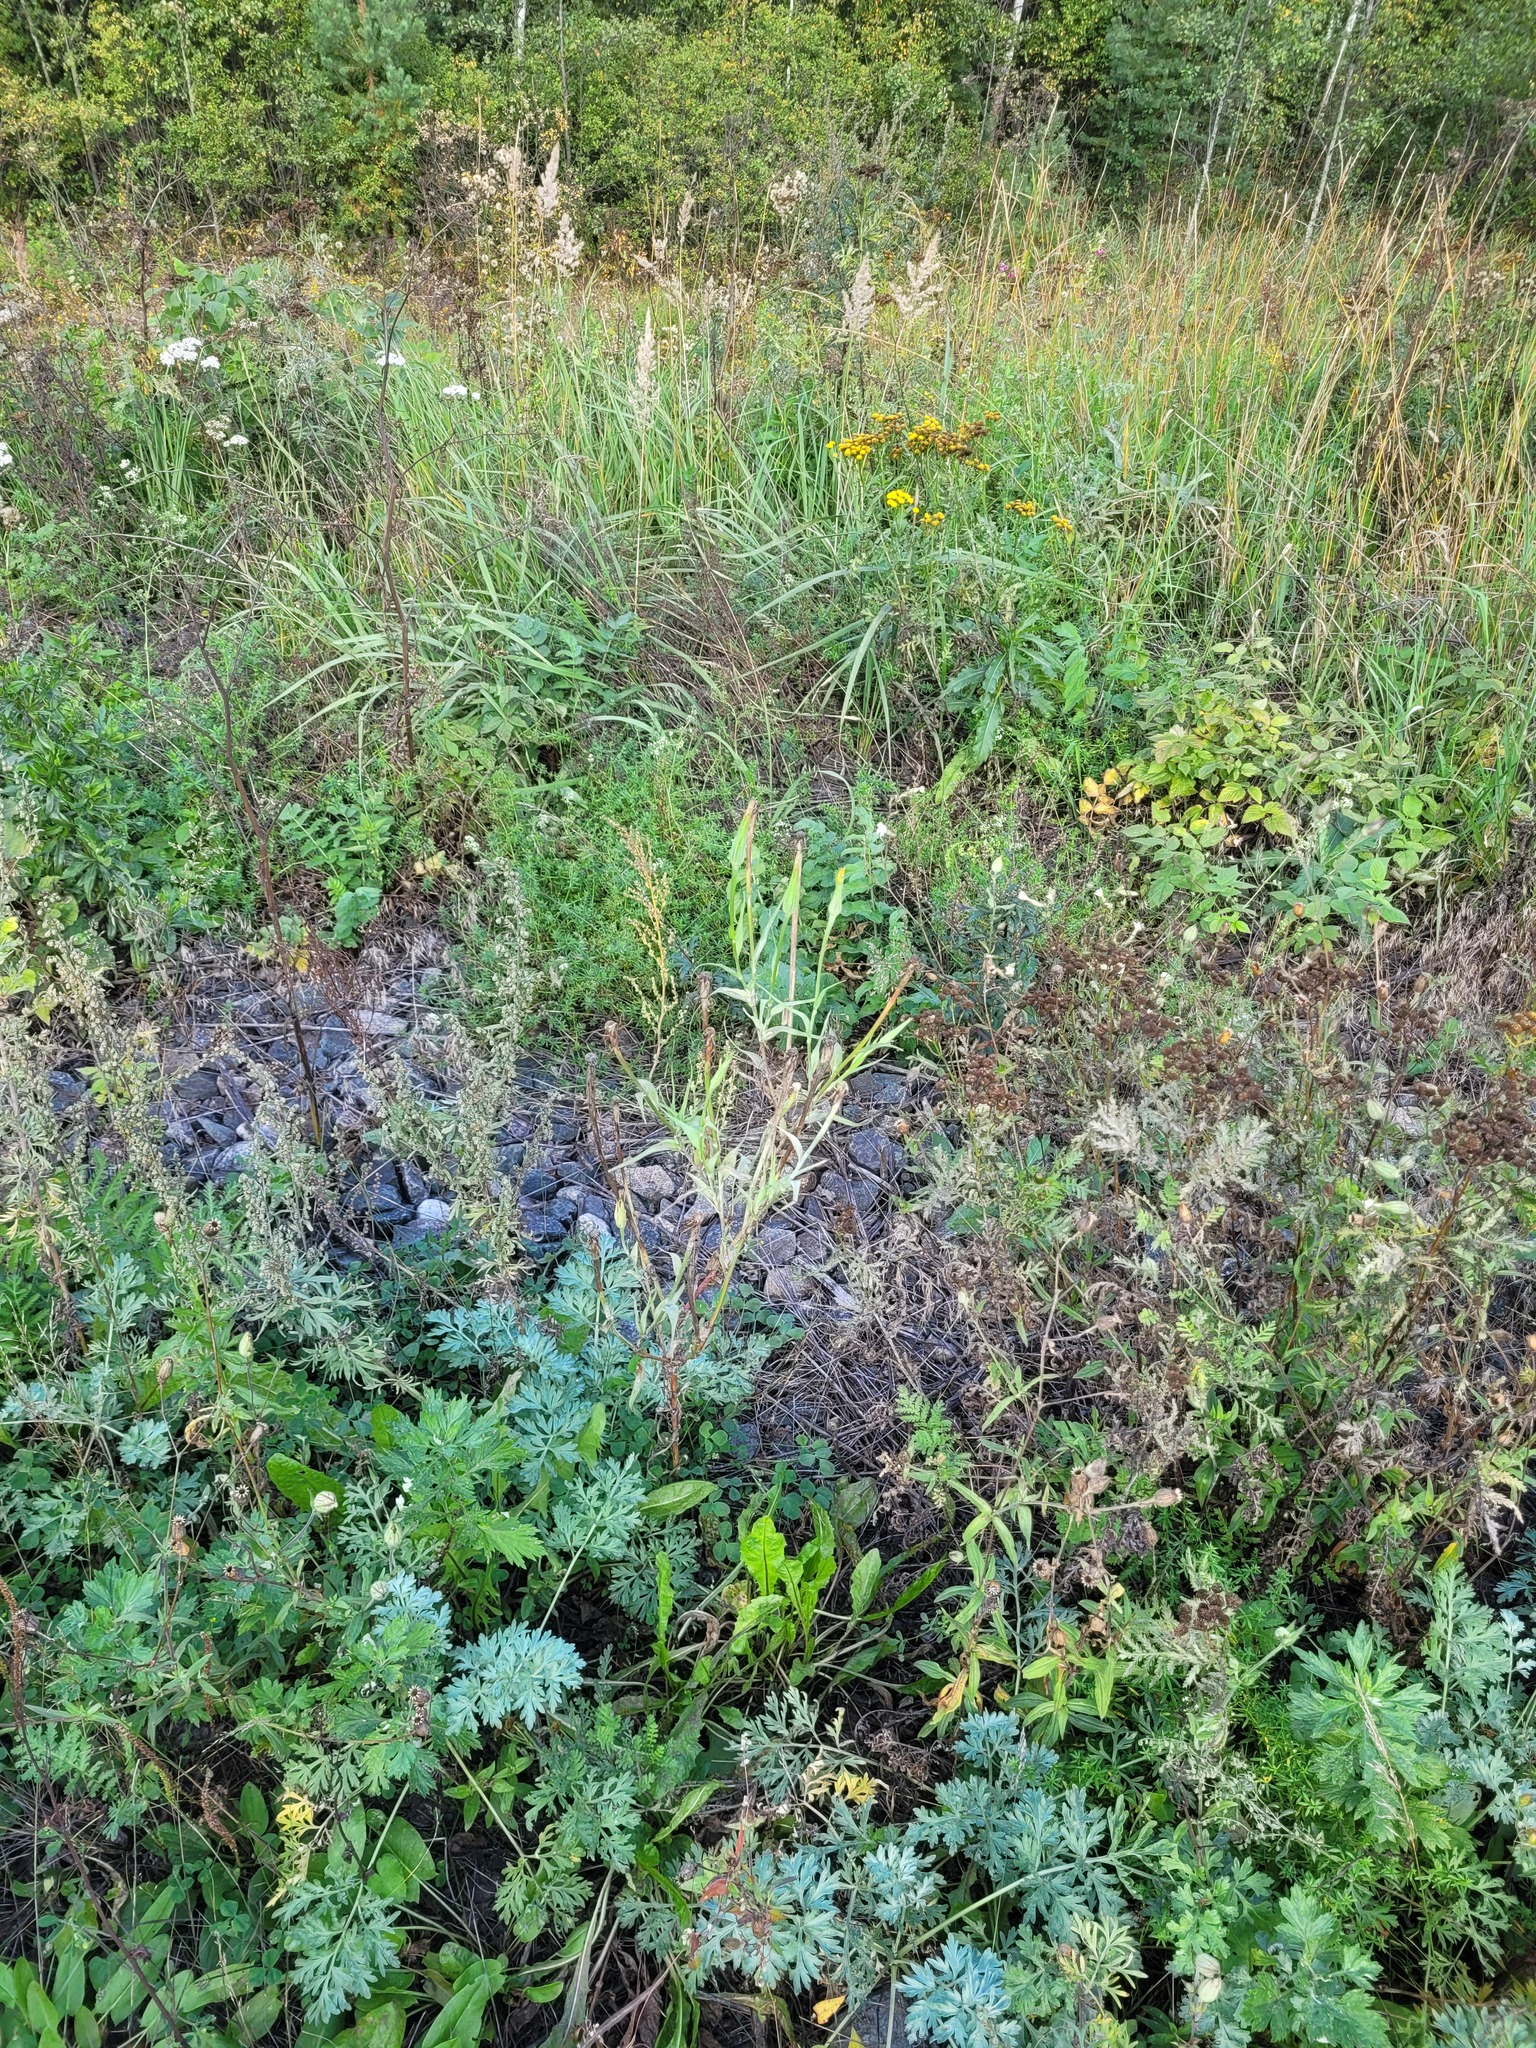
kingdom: Plantae
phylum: Tracheophyta
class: Magnoliopsida
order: Asterales
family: Asteraceae
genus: Tragopogon
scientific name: Tragopogon dubius
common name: Yellow salsify
